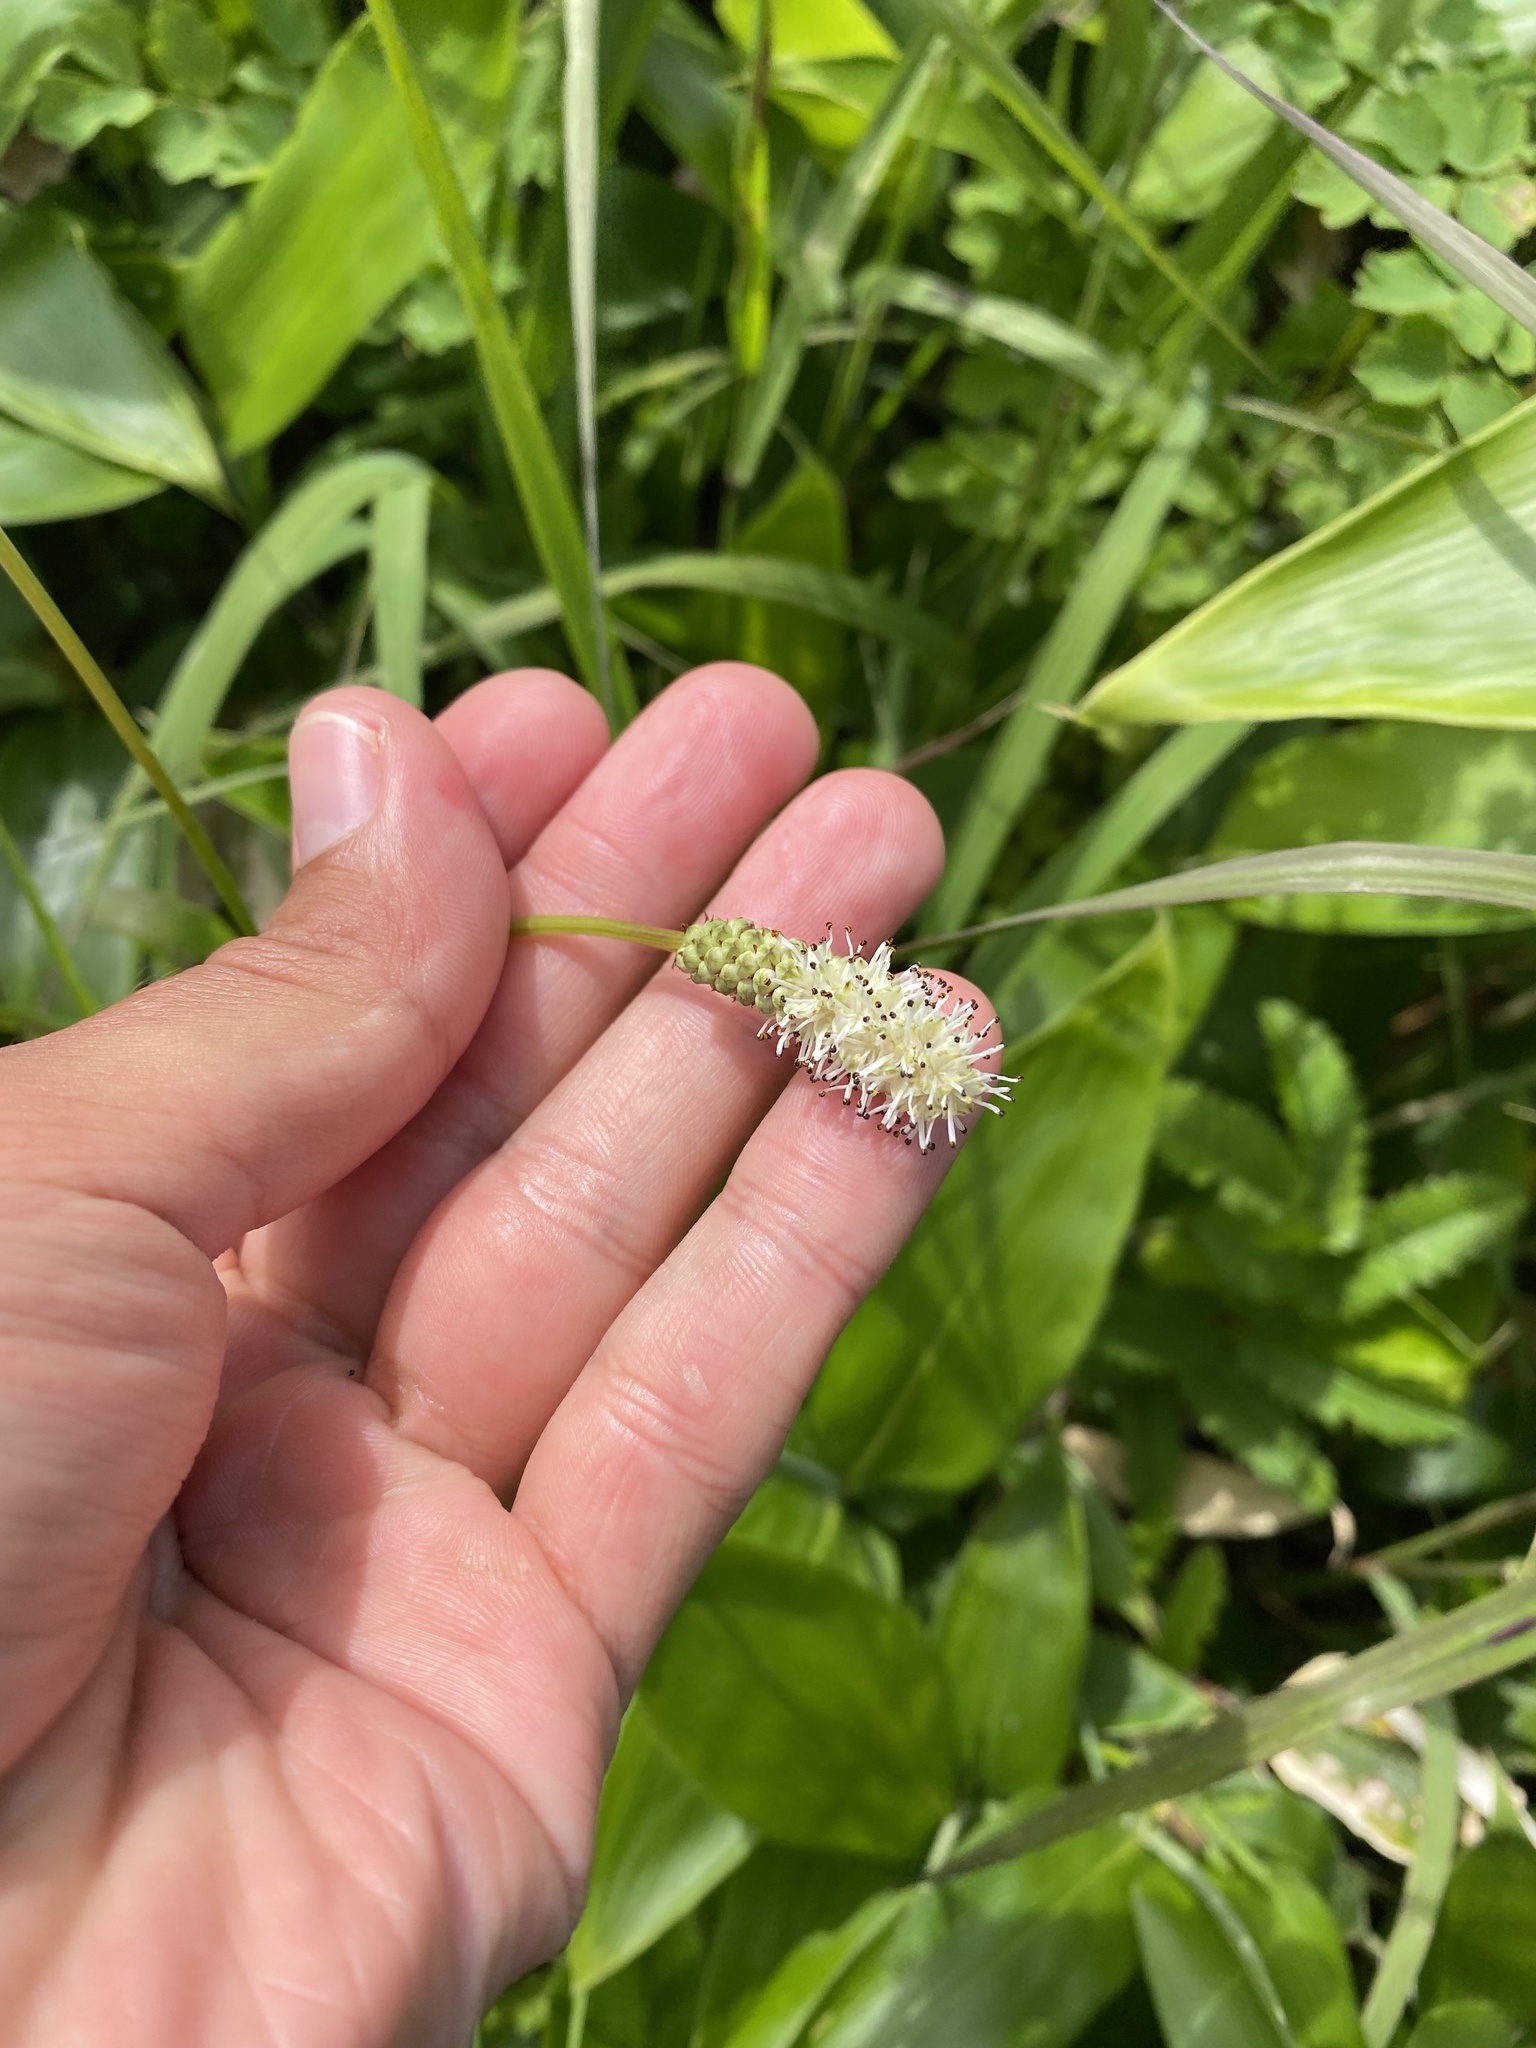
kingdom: Plantae
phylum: Tracheophyta
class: Magnoliopsida
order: Rosales
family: Rosaceae
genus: Poterium
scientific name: Poterium tenuifolium
